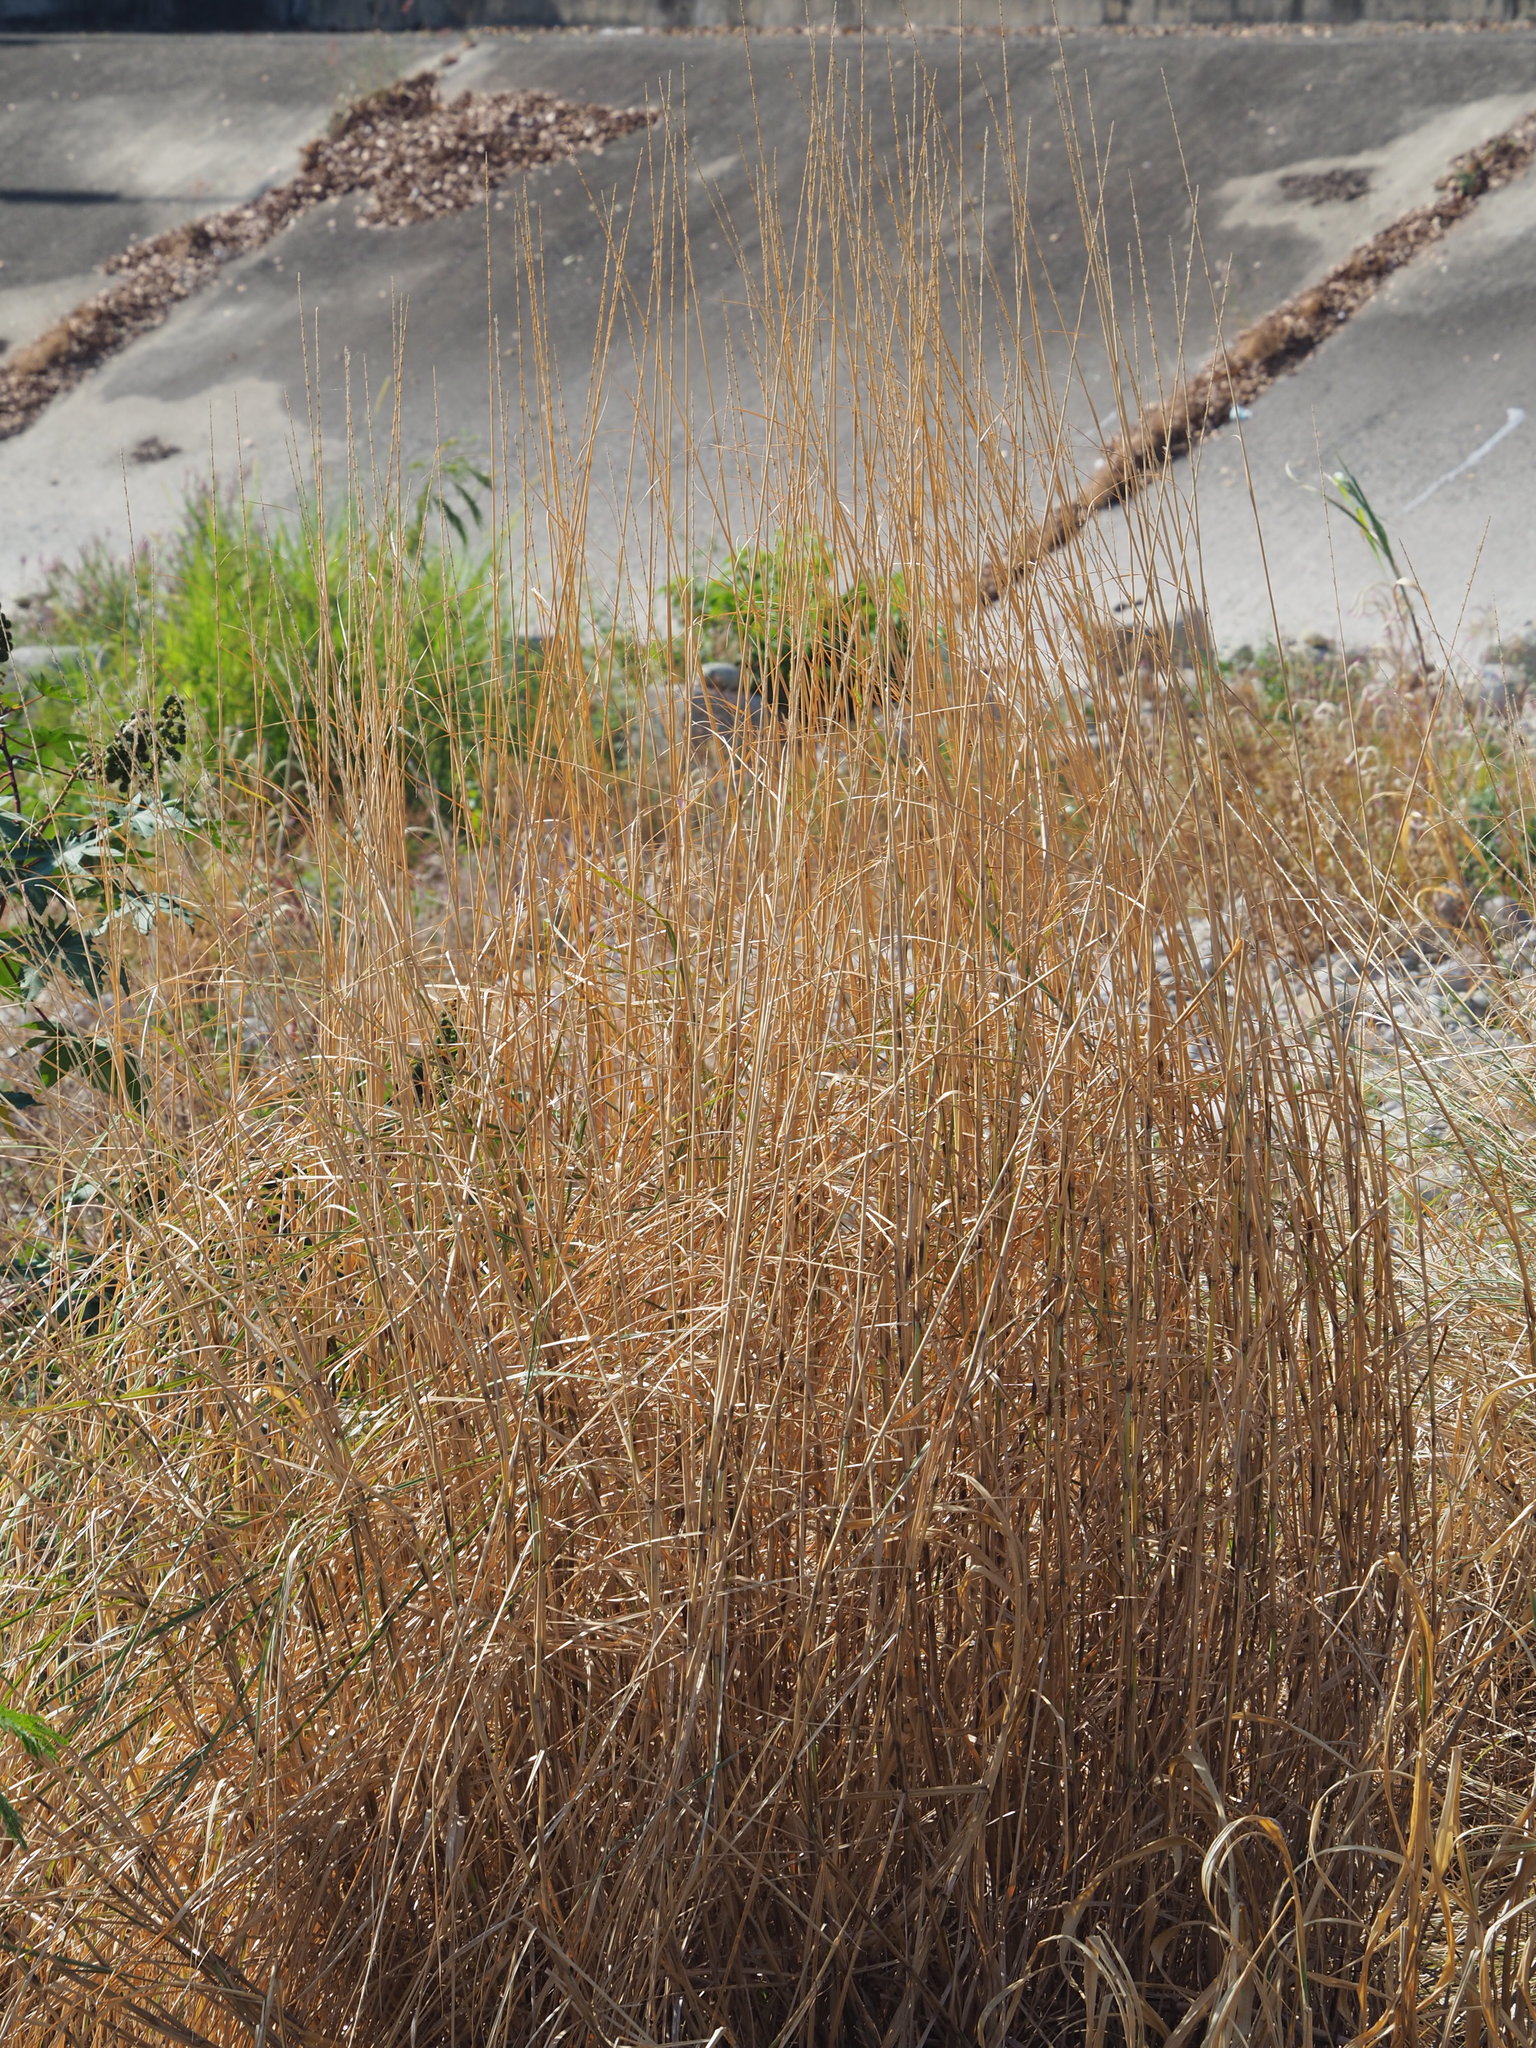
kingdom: Plantae
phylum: Tracheophyta
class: Liliopsida
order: Poales
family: Poaceae
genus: Saccharum
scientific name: Saccharum spontaneum
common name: Wild sugarcane
